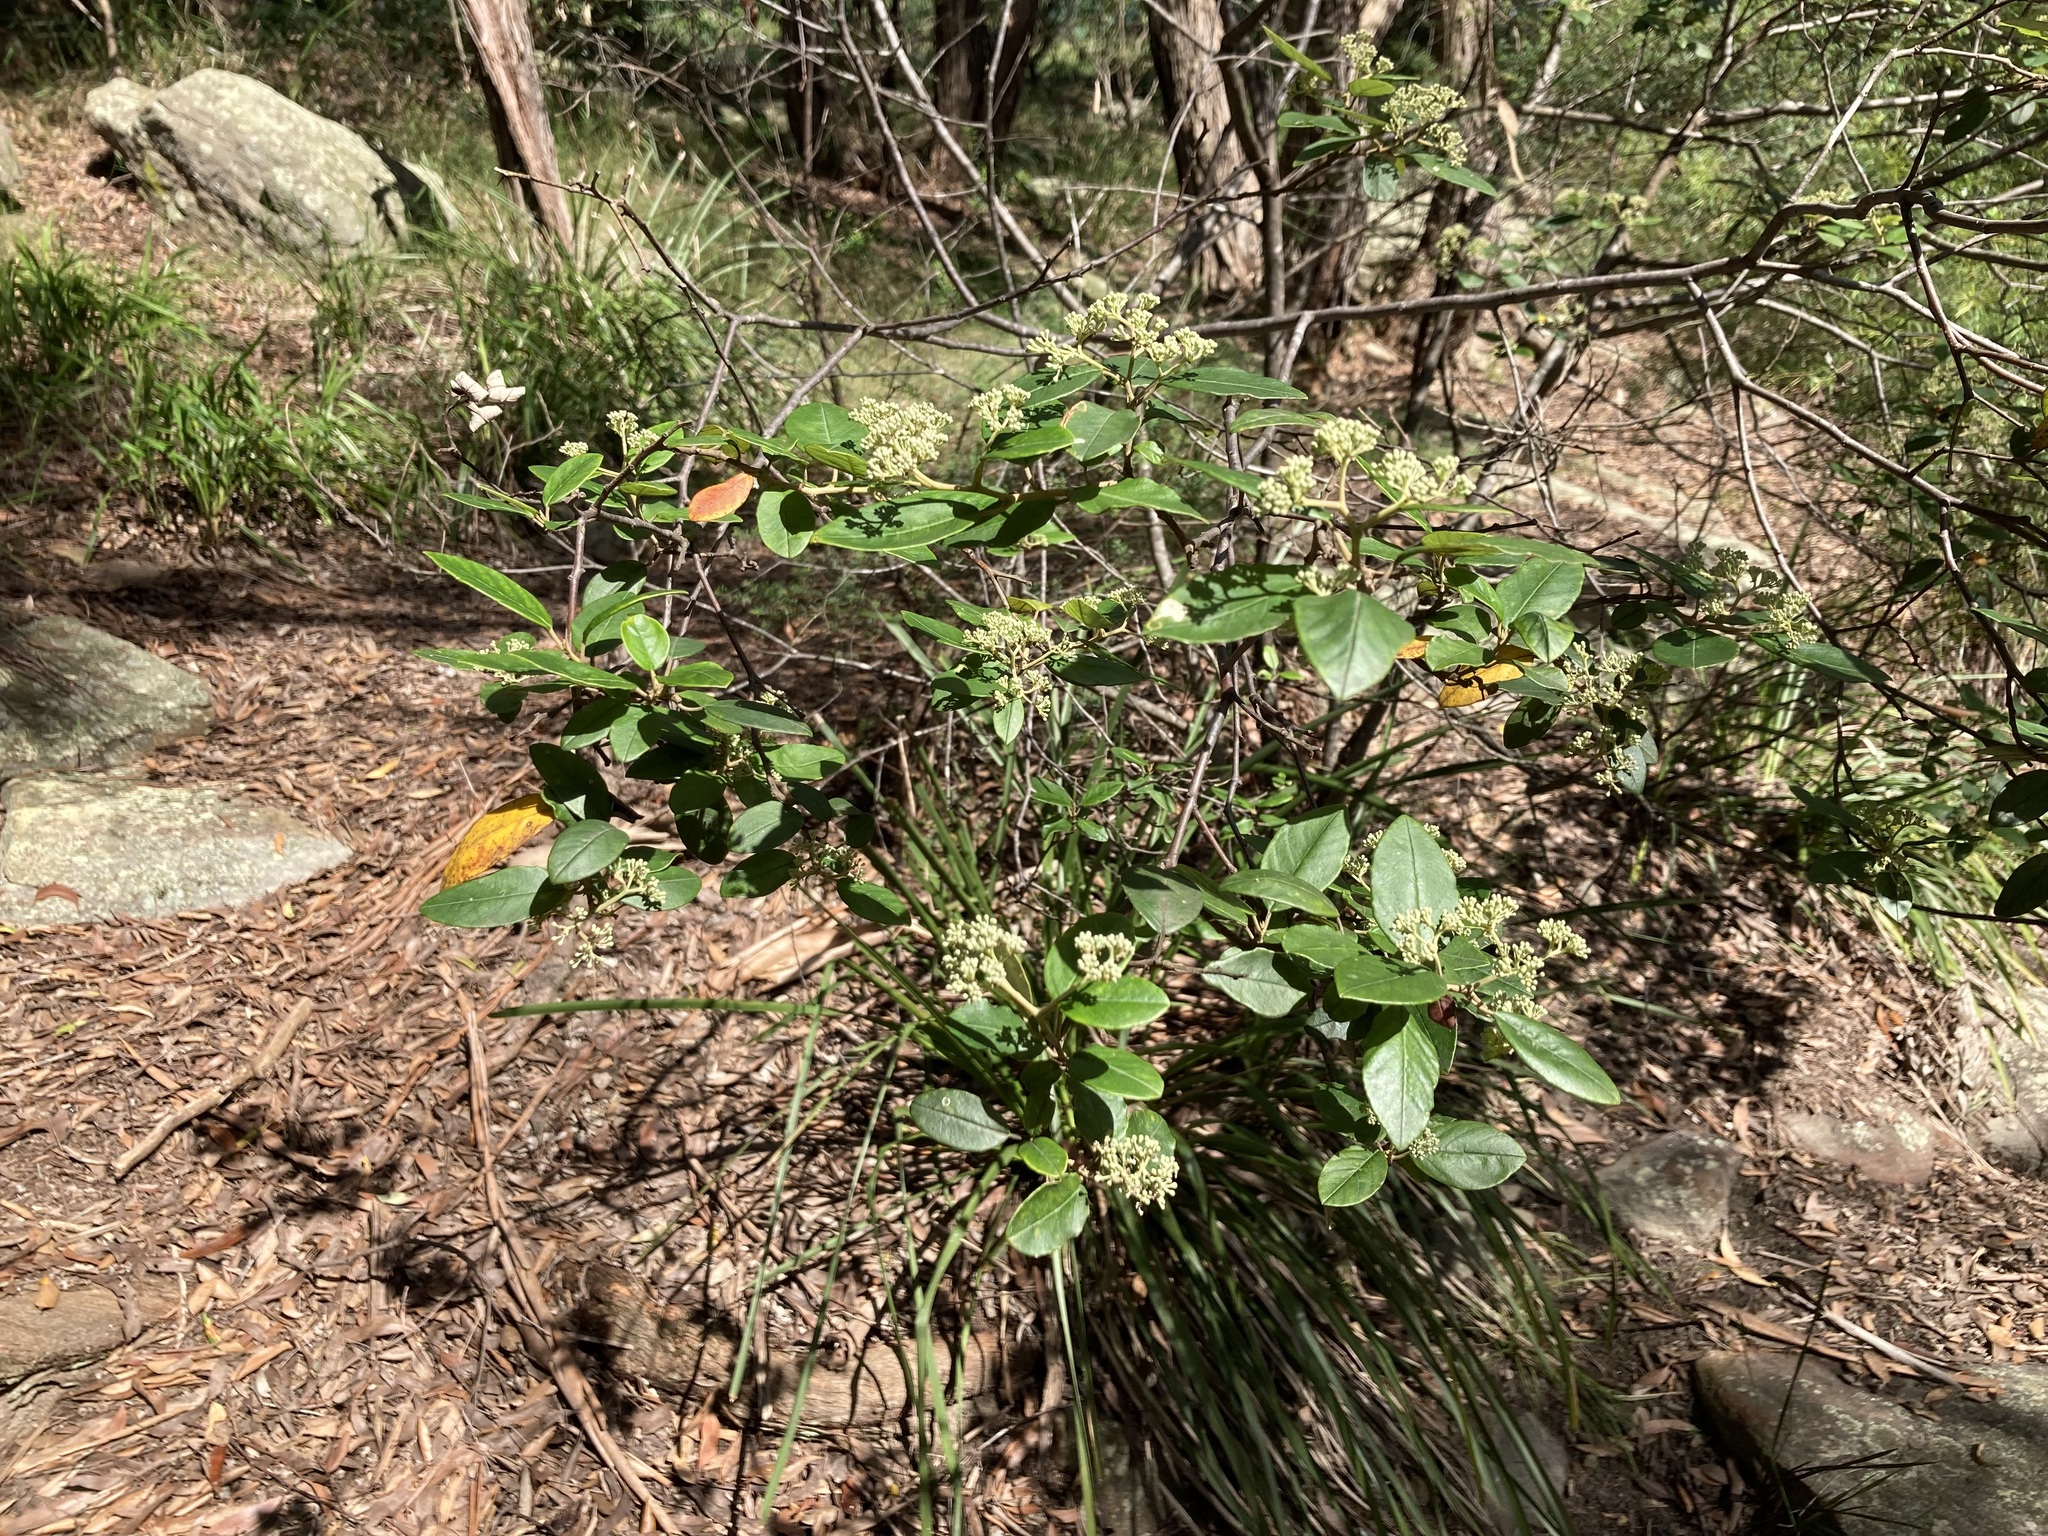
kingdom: Plantae
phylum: Tracheophyta
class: Magnoliopsida
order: Rosales
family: Rhamnaceae
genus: Pomaderris
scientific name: Pomaderris lanigera
